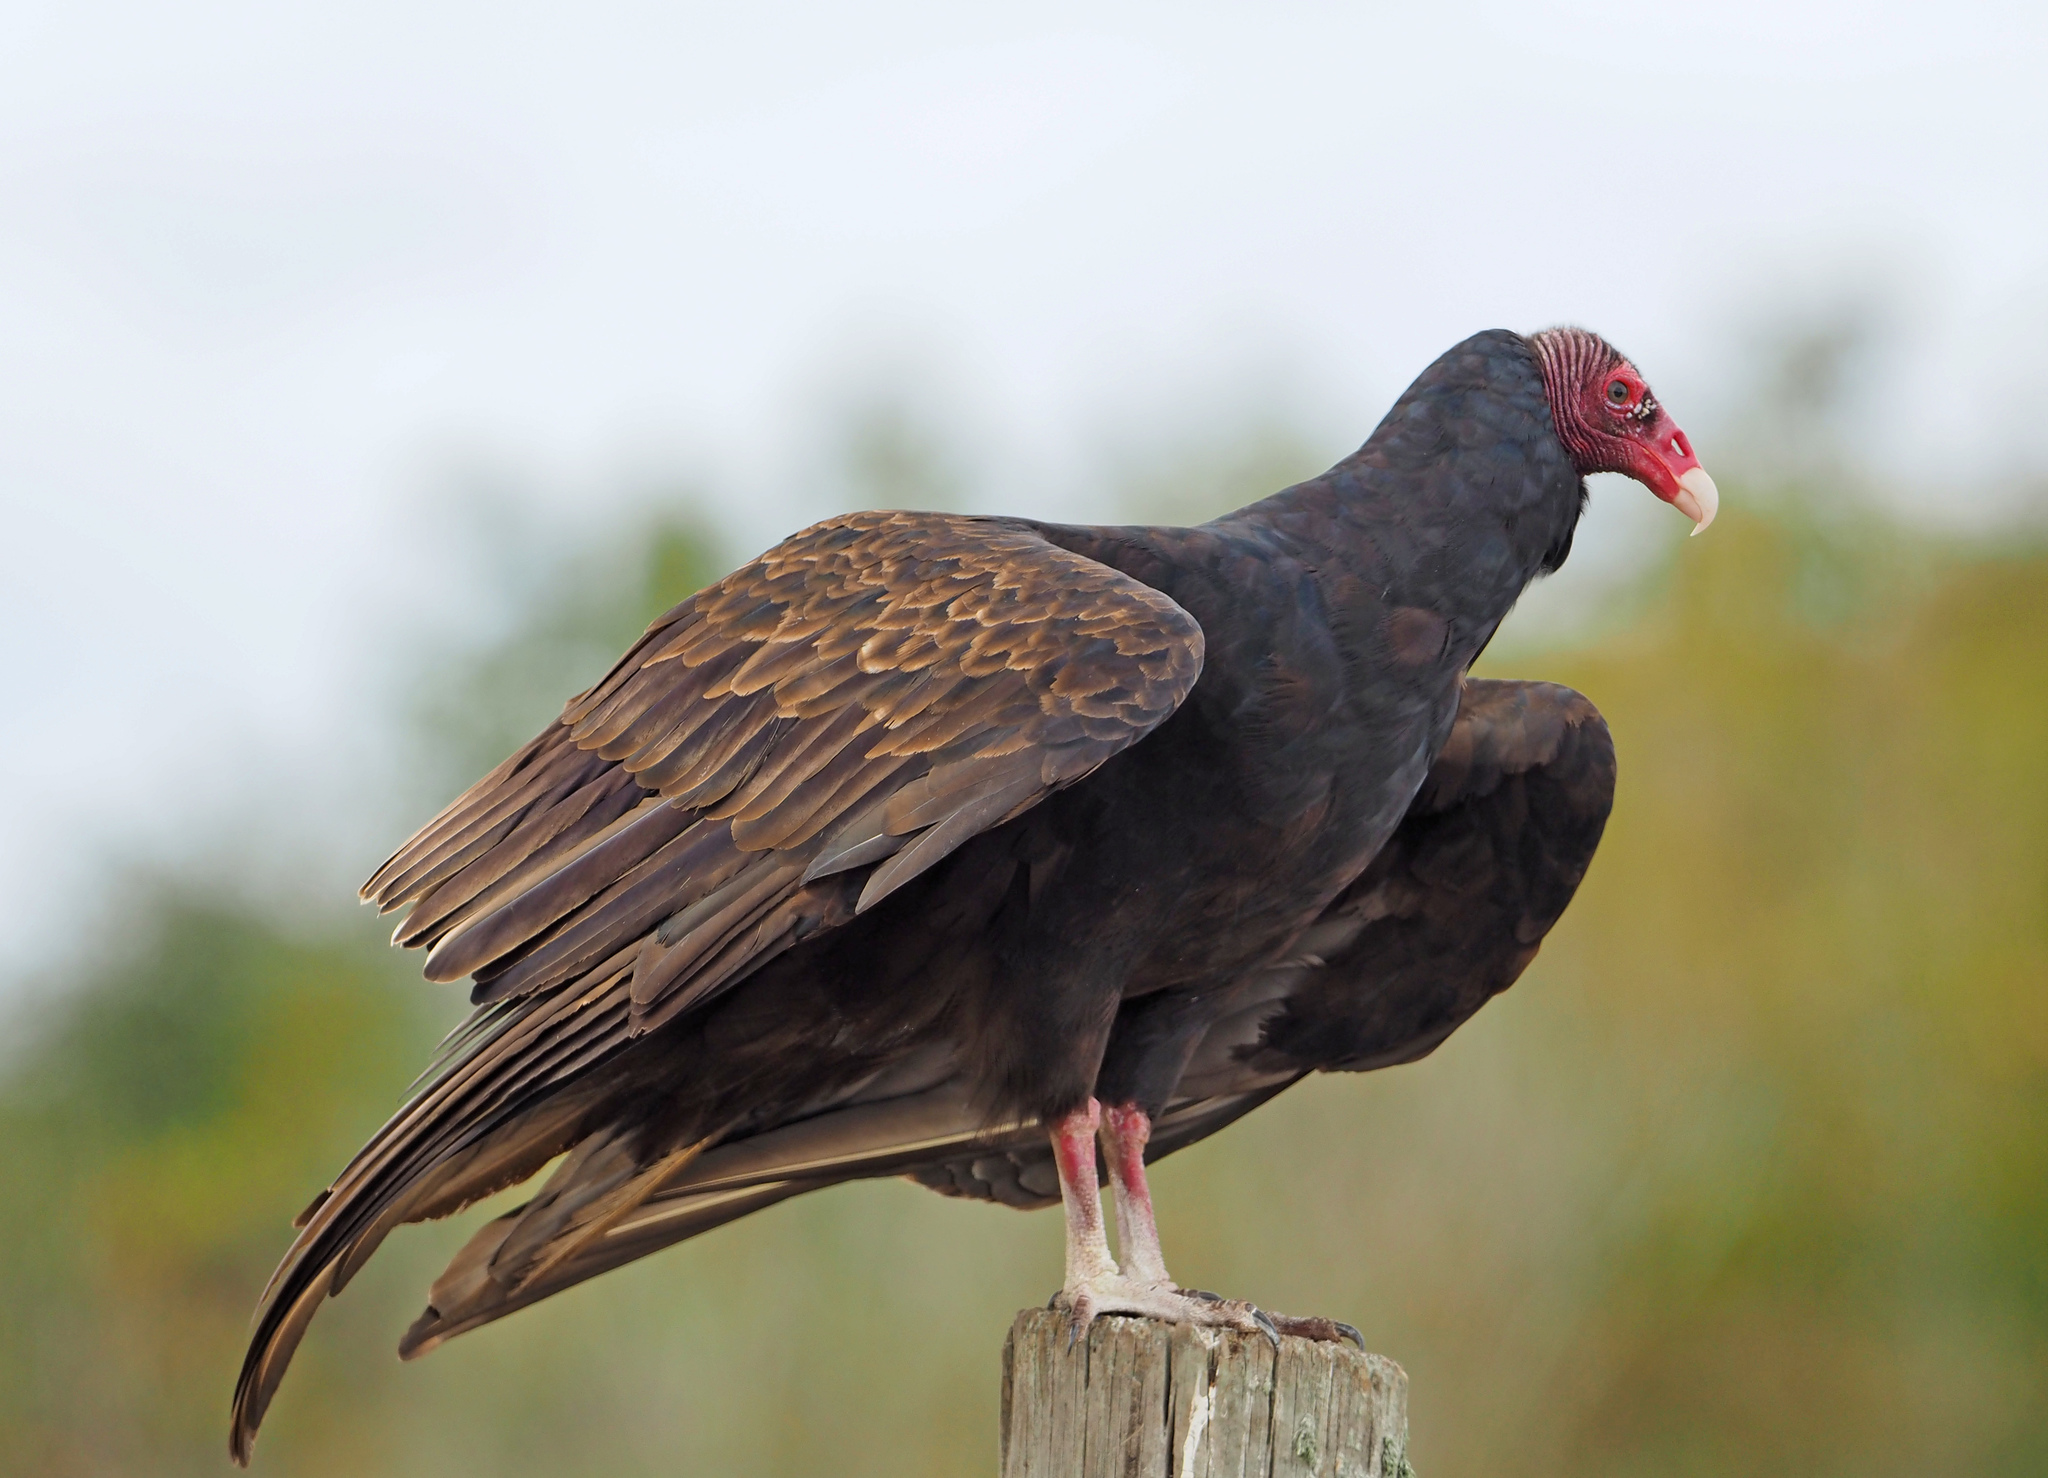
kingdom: Animalia
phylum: Chordata
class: Aves
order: Accipitriformes
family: Cathartidae
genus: Cathartes
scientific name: Cathartes aura
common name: Turkey vulture
